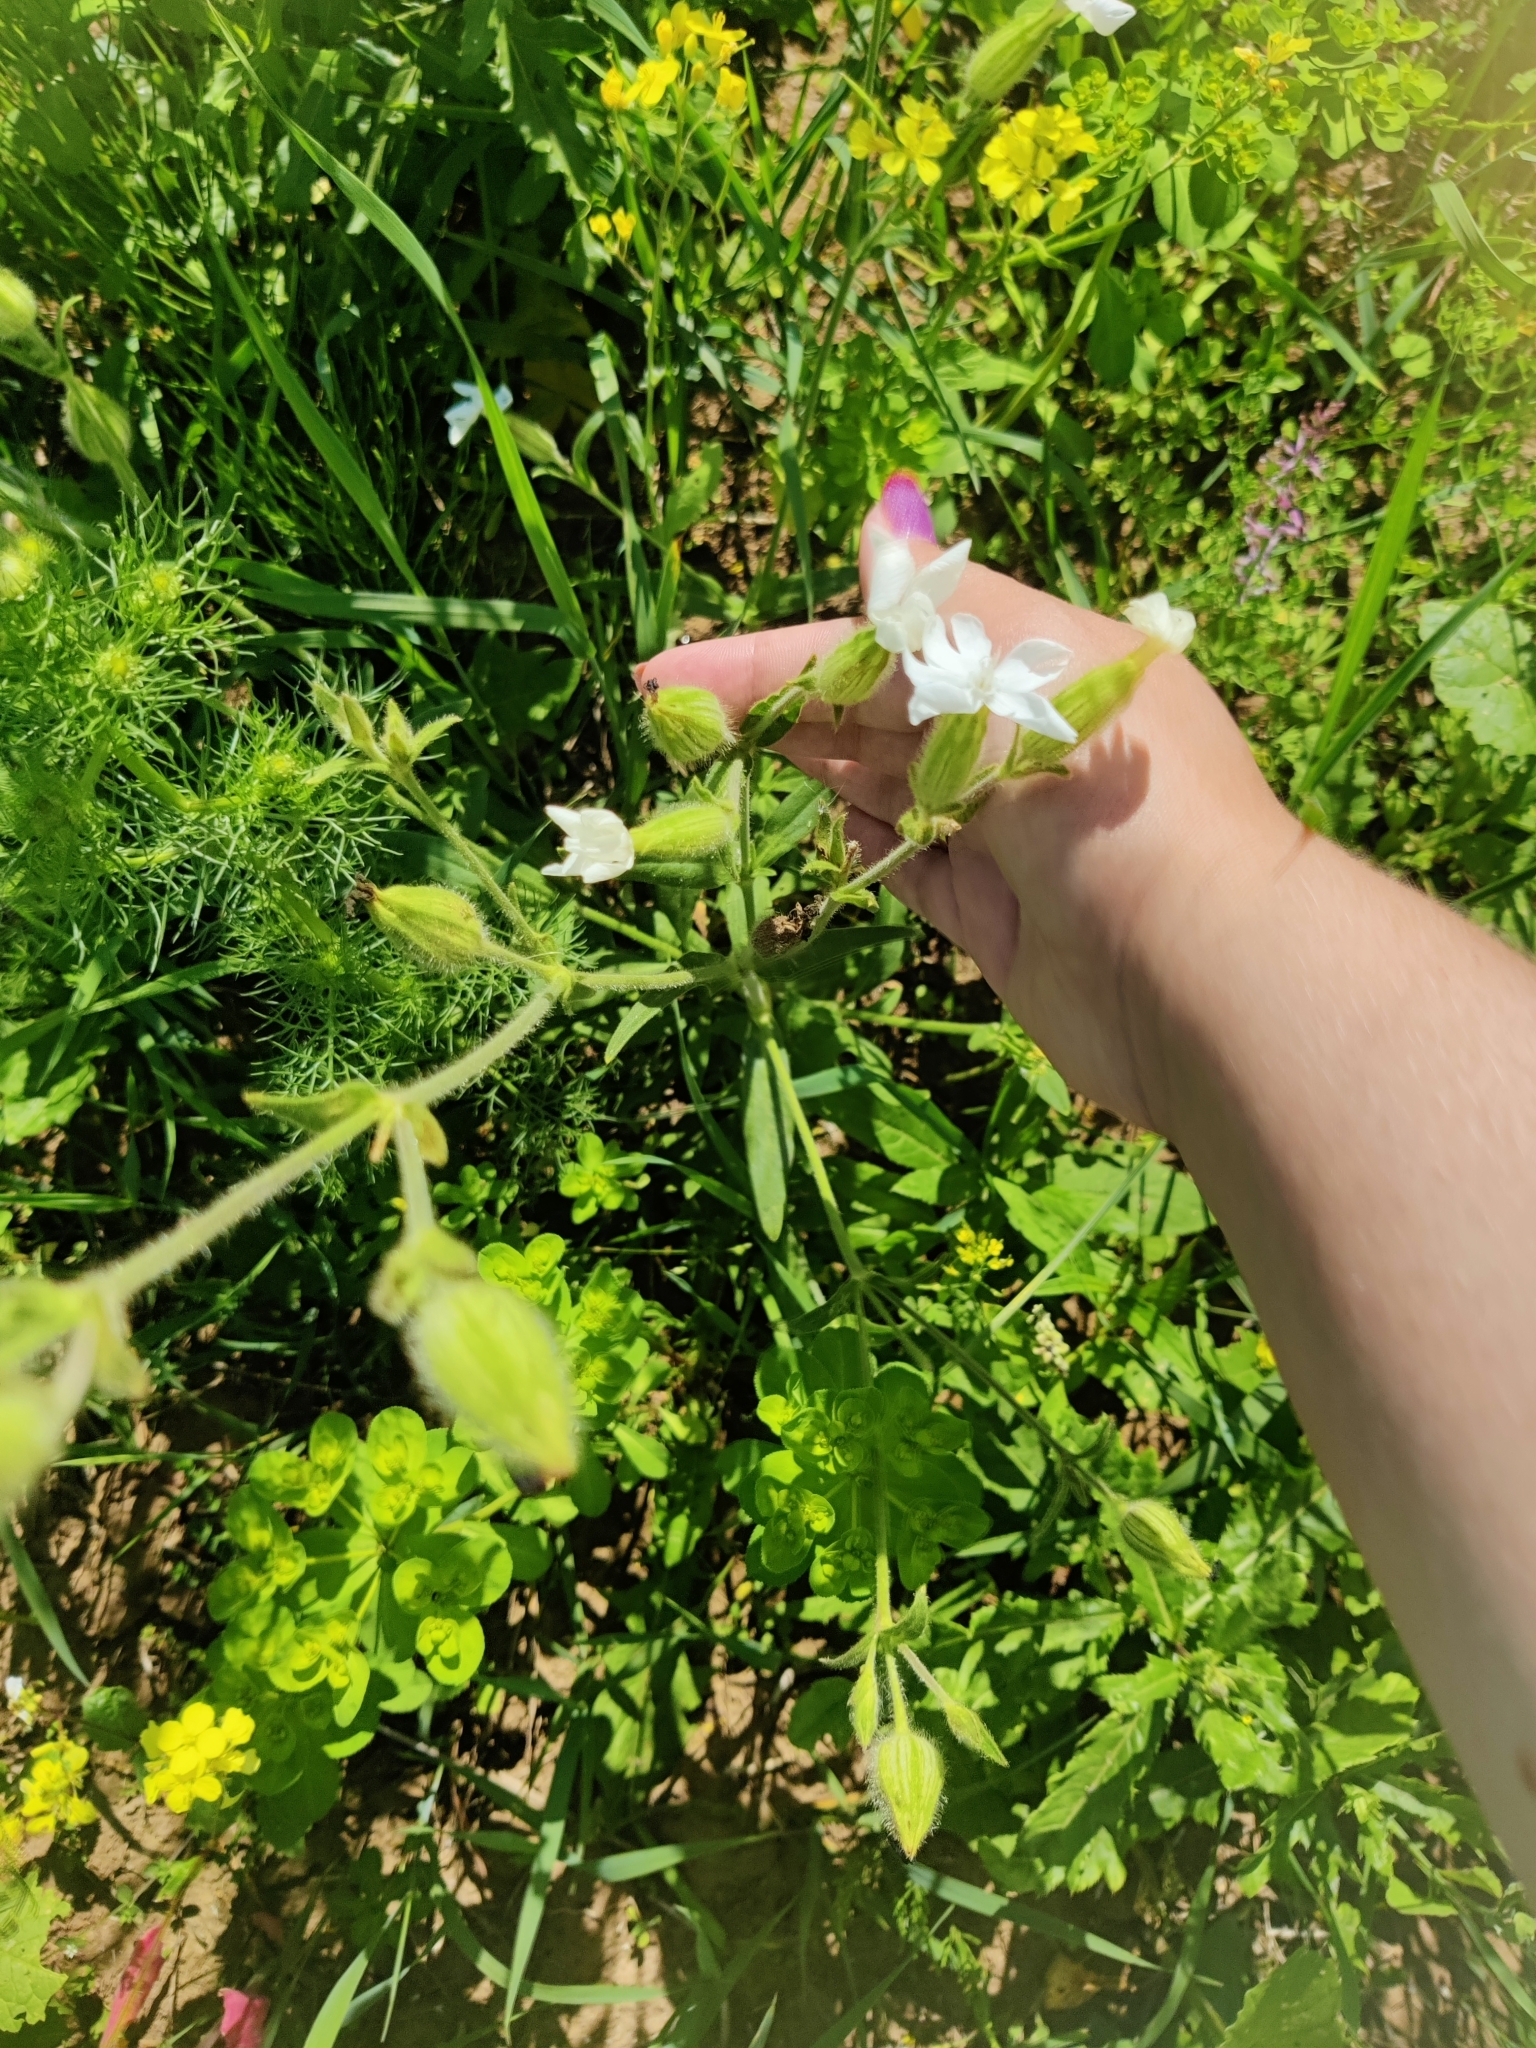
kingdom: Plantae
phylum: Tracheophyta
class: Magnoliopsida
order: Caryophyllales
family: Caryophyllaceae
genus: Silene
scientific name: Silene latifolia
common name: White campion
